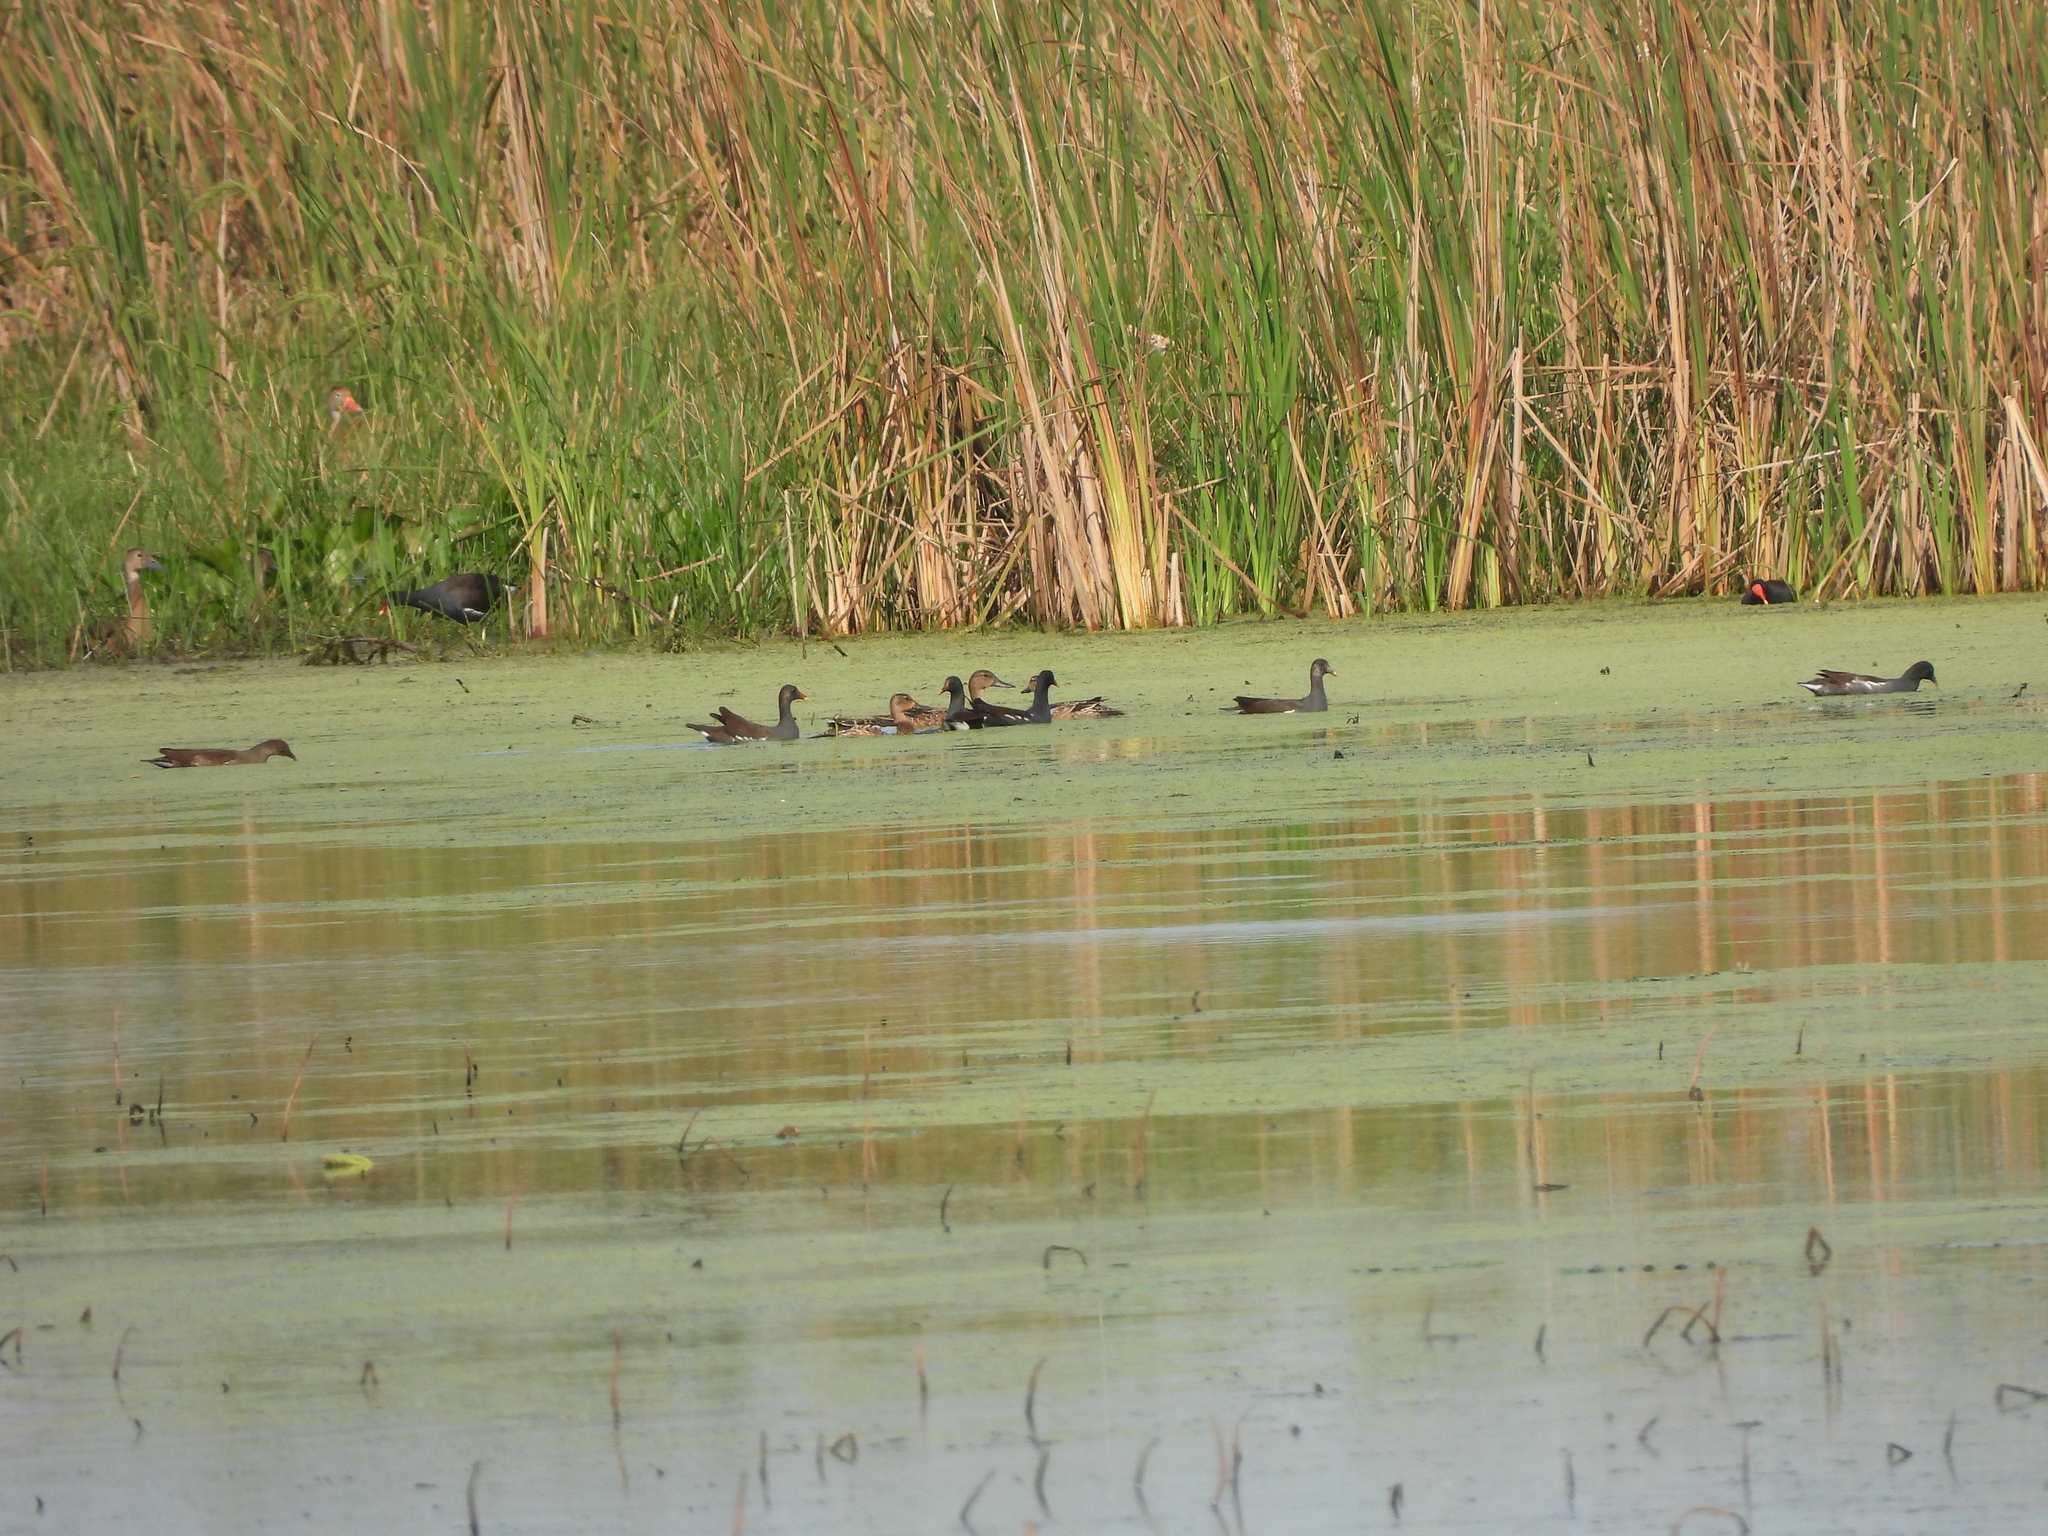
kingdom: Animalia
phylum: Chordata
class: Aves
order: Anseriformes
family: Anatidae
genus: Spatula
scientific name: Spatula discors
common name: Blue-winged teal
